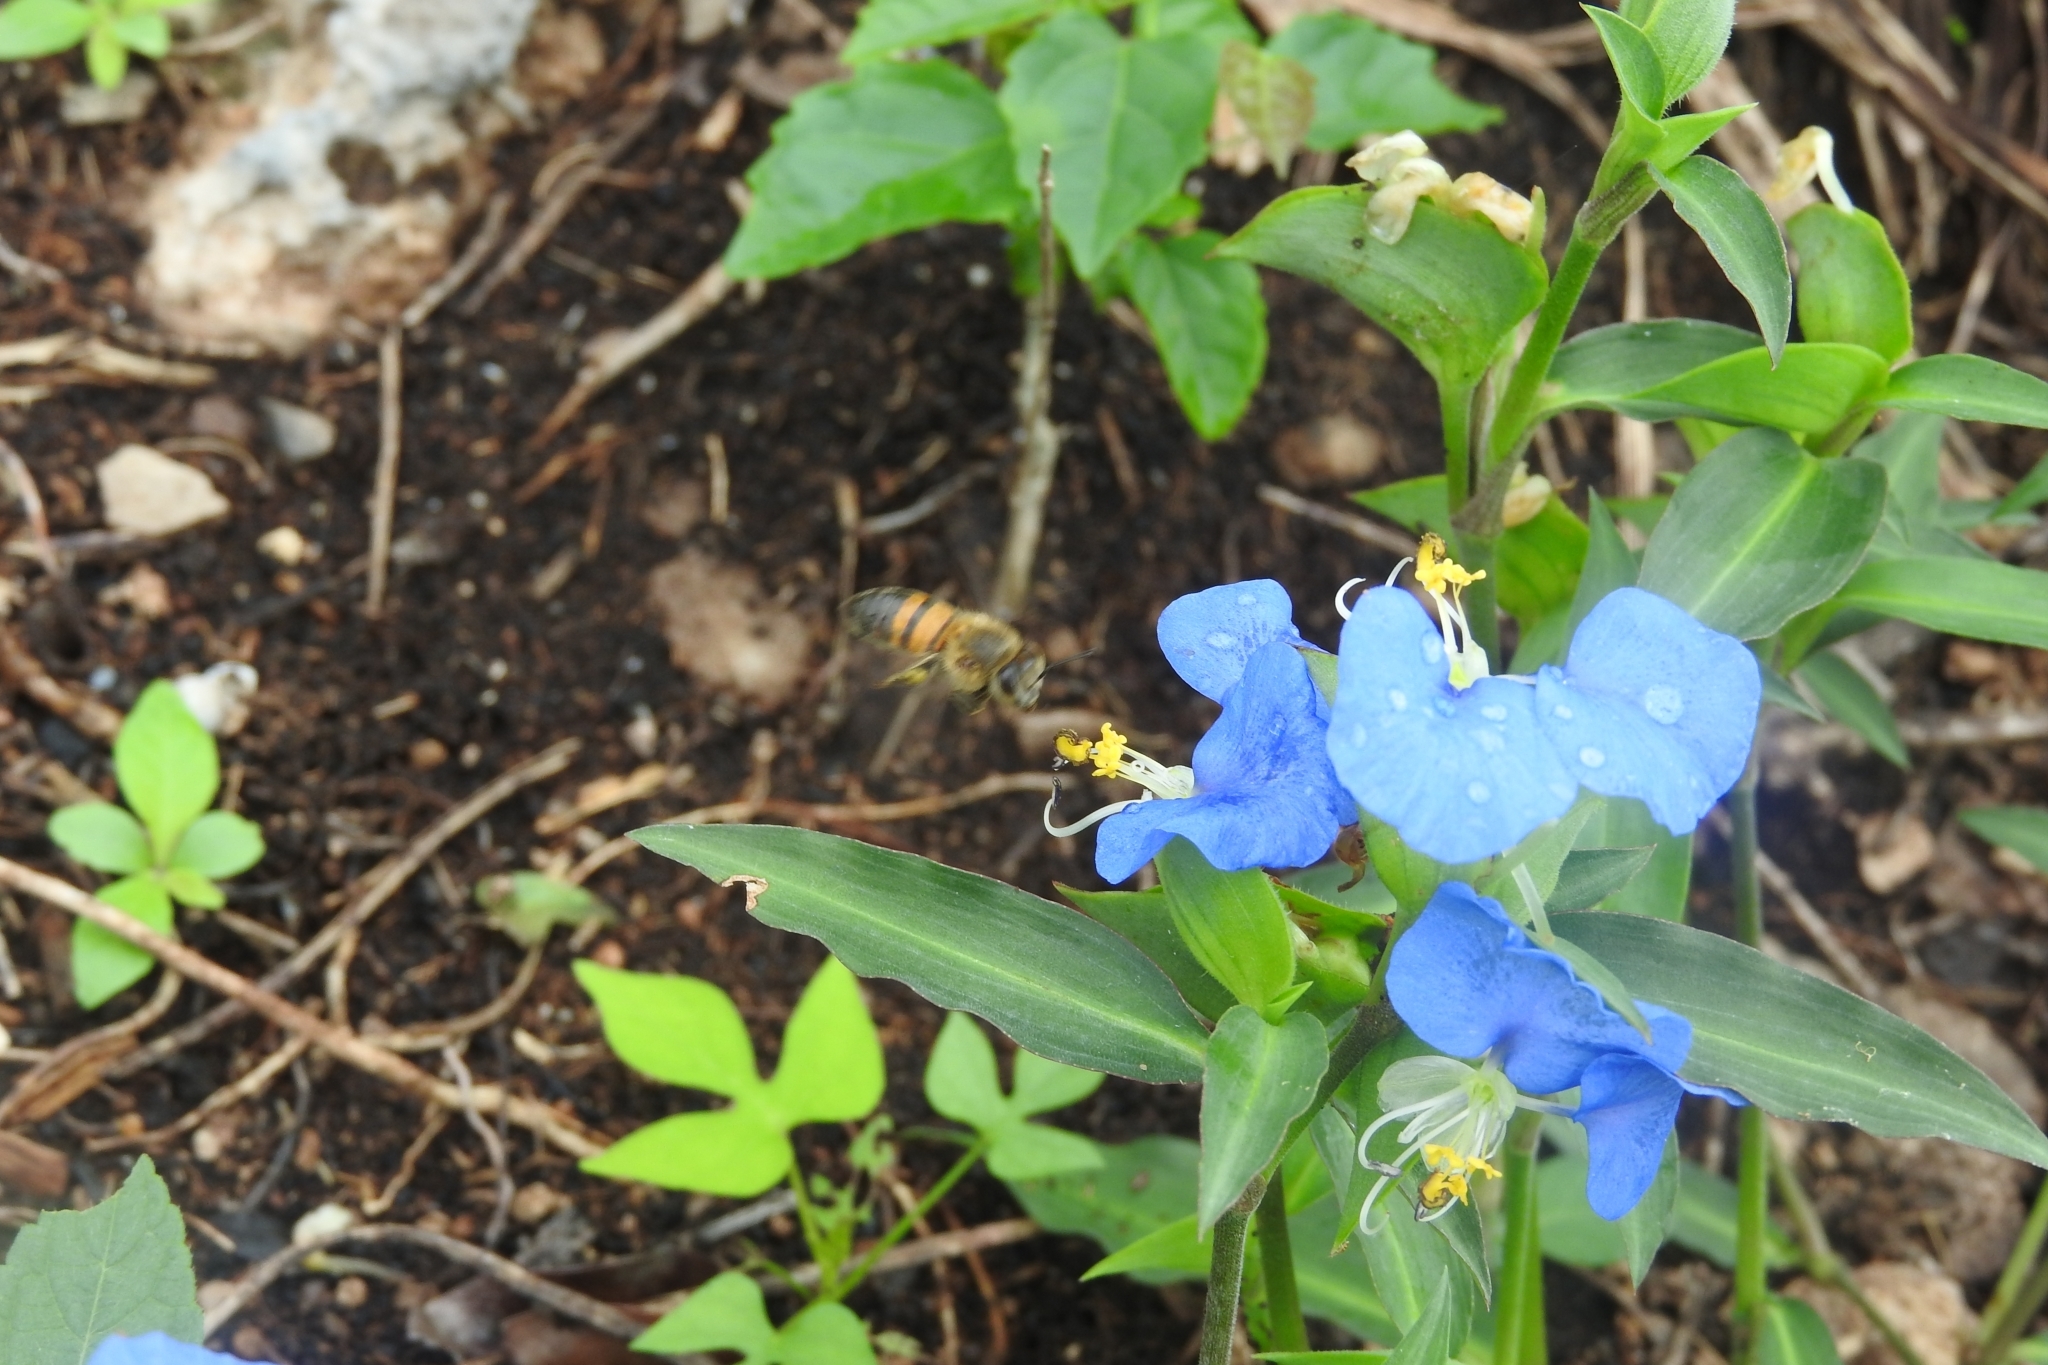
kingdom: Animalia
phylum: Arthropoda
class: Insecta
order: Hymenoptera
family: Apidae
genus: Apis
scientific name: Apis mellifera
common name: Honey bee
